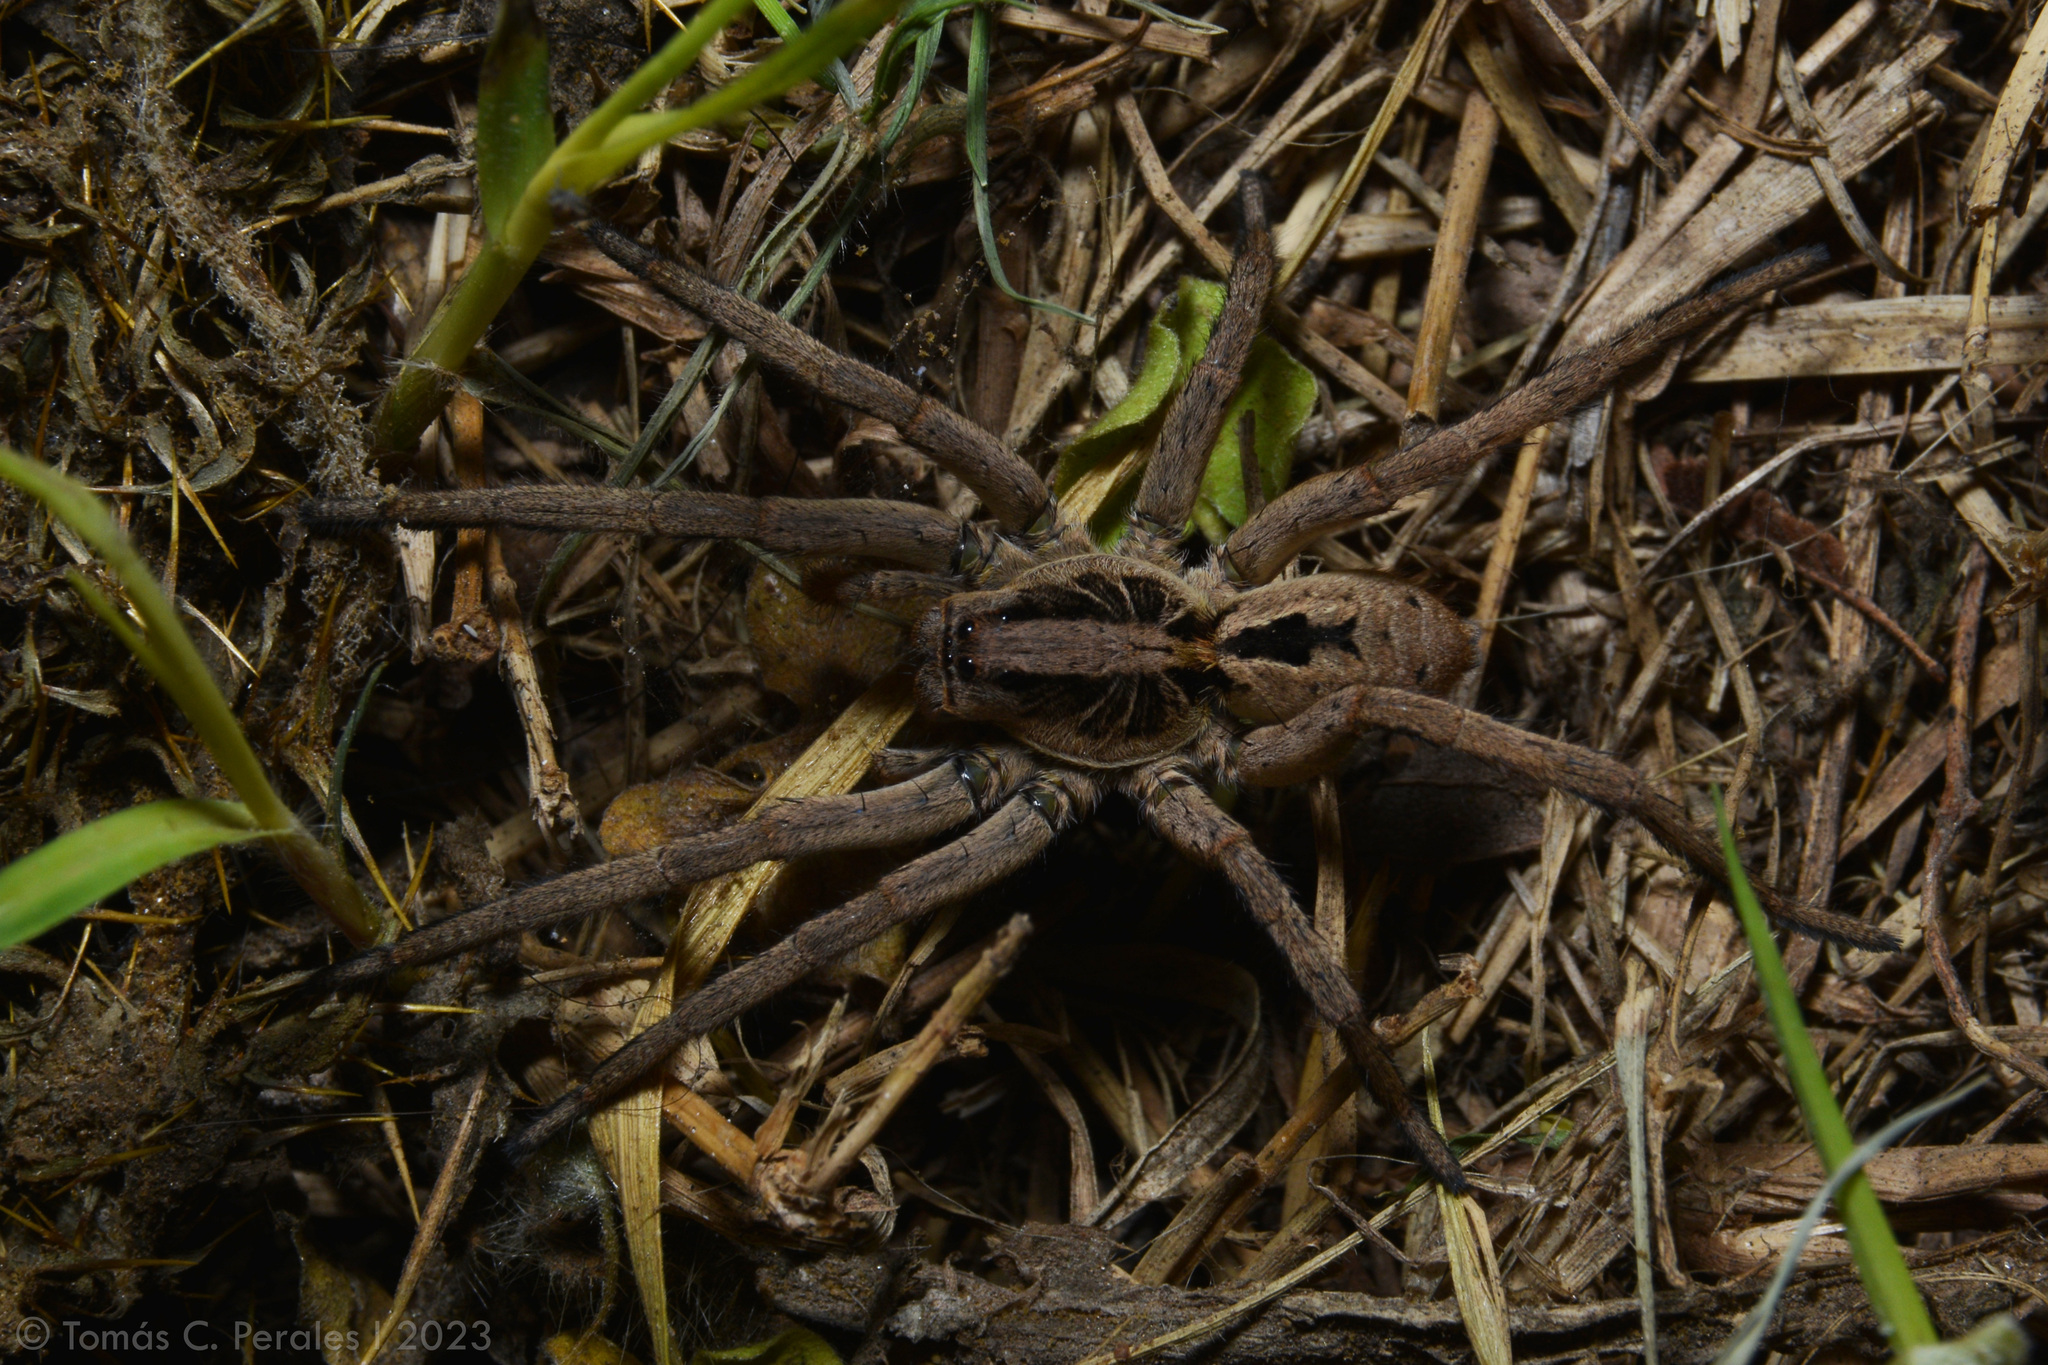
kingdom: Animalia
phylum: Arthropoda
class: Arachnida
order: Araneae
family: Lycosidae
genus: Lycosa
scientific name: Lycosa erythrognatha
